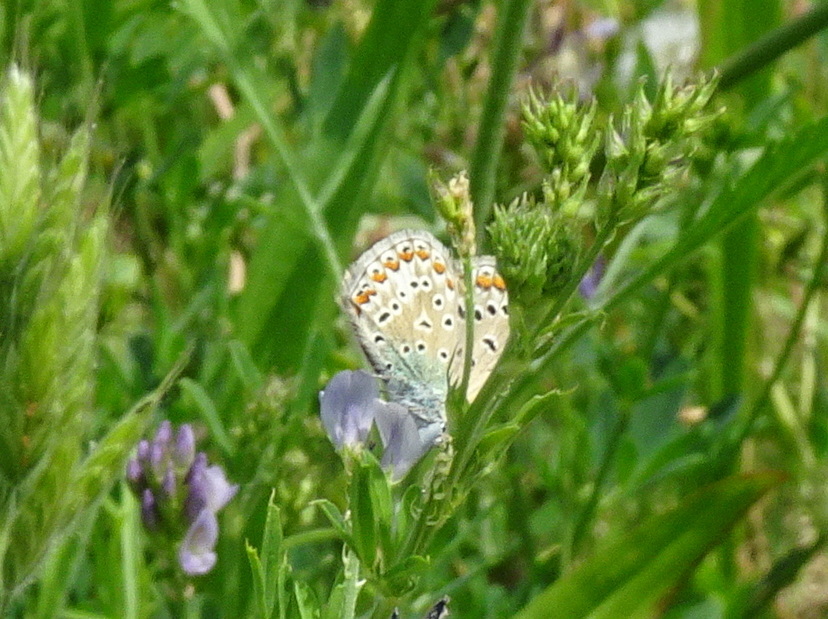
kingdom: Animalia
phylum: Arthropoda
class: Insecta
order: Lepidoptera
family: Lycaenidae
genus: Polyommatus
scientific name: Polyommatus icarus
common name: Common blue
